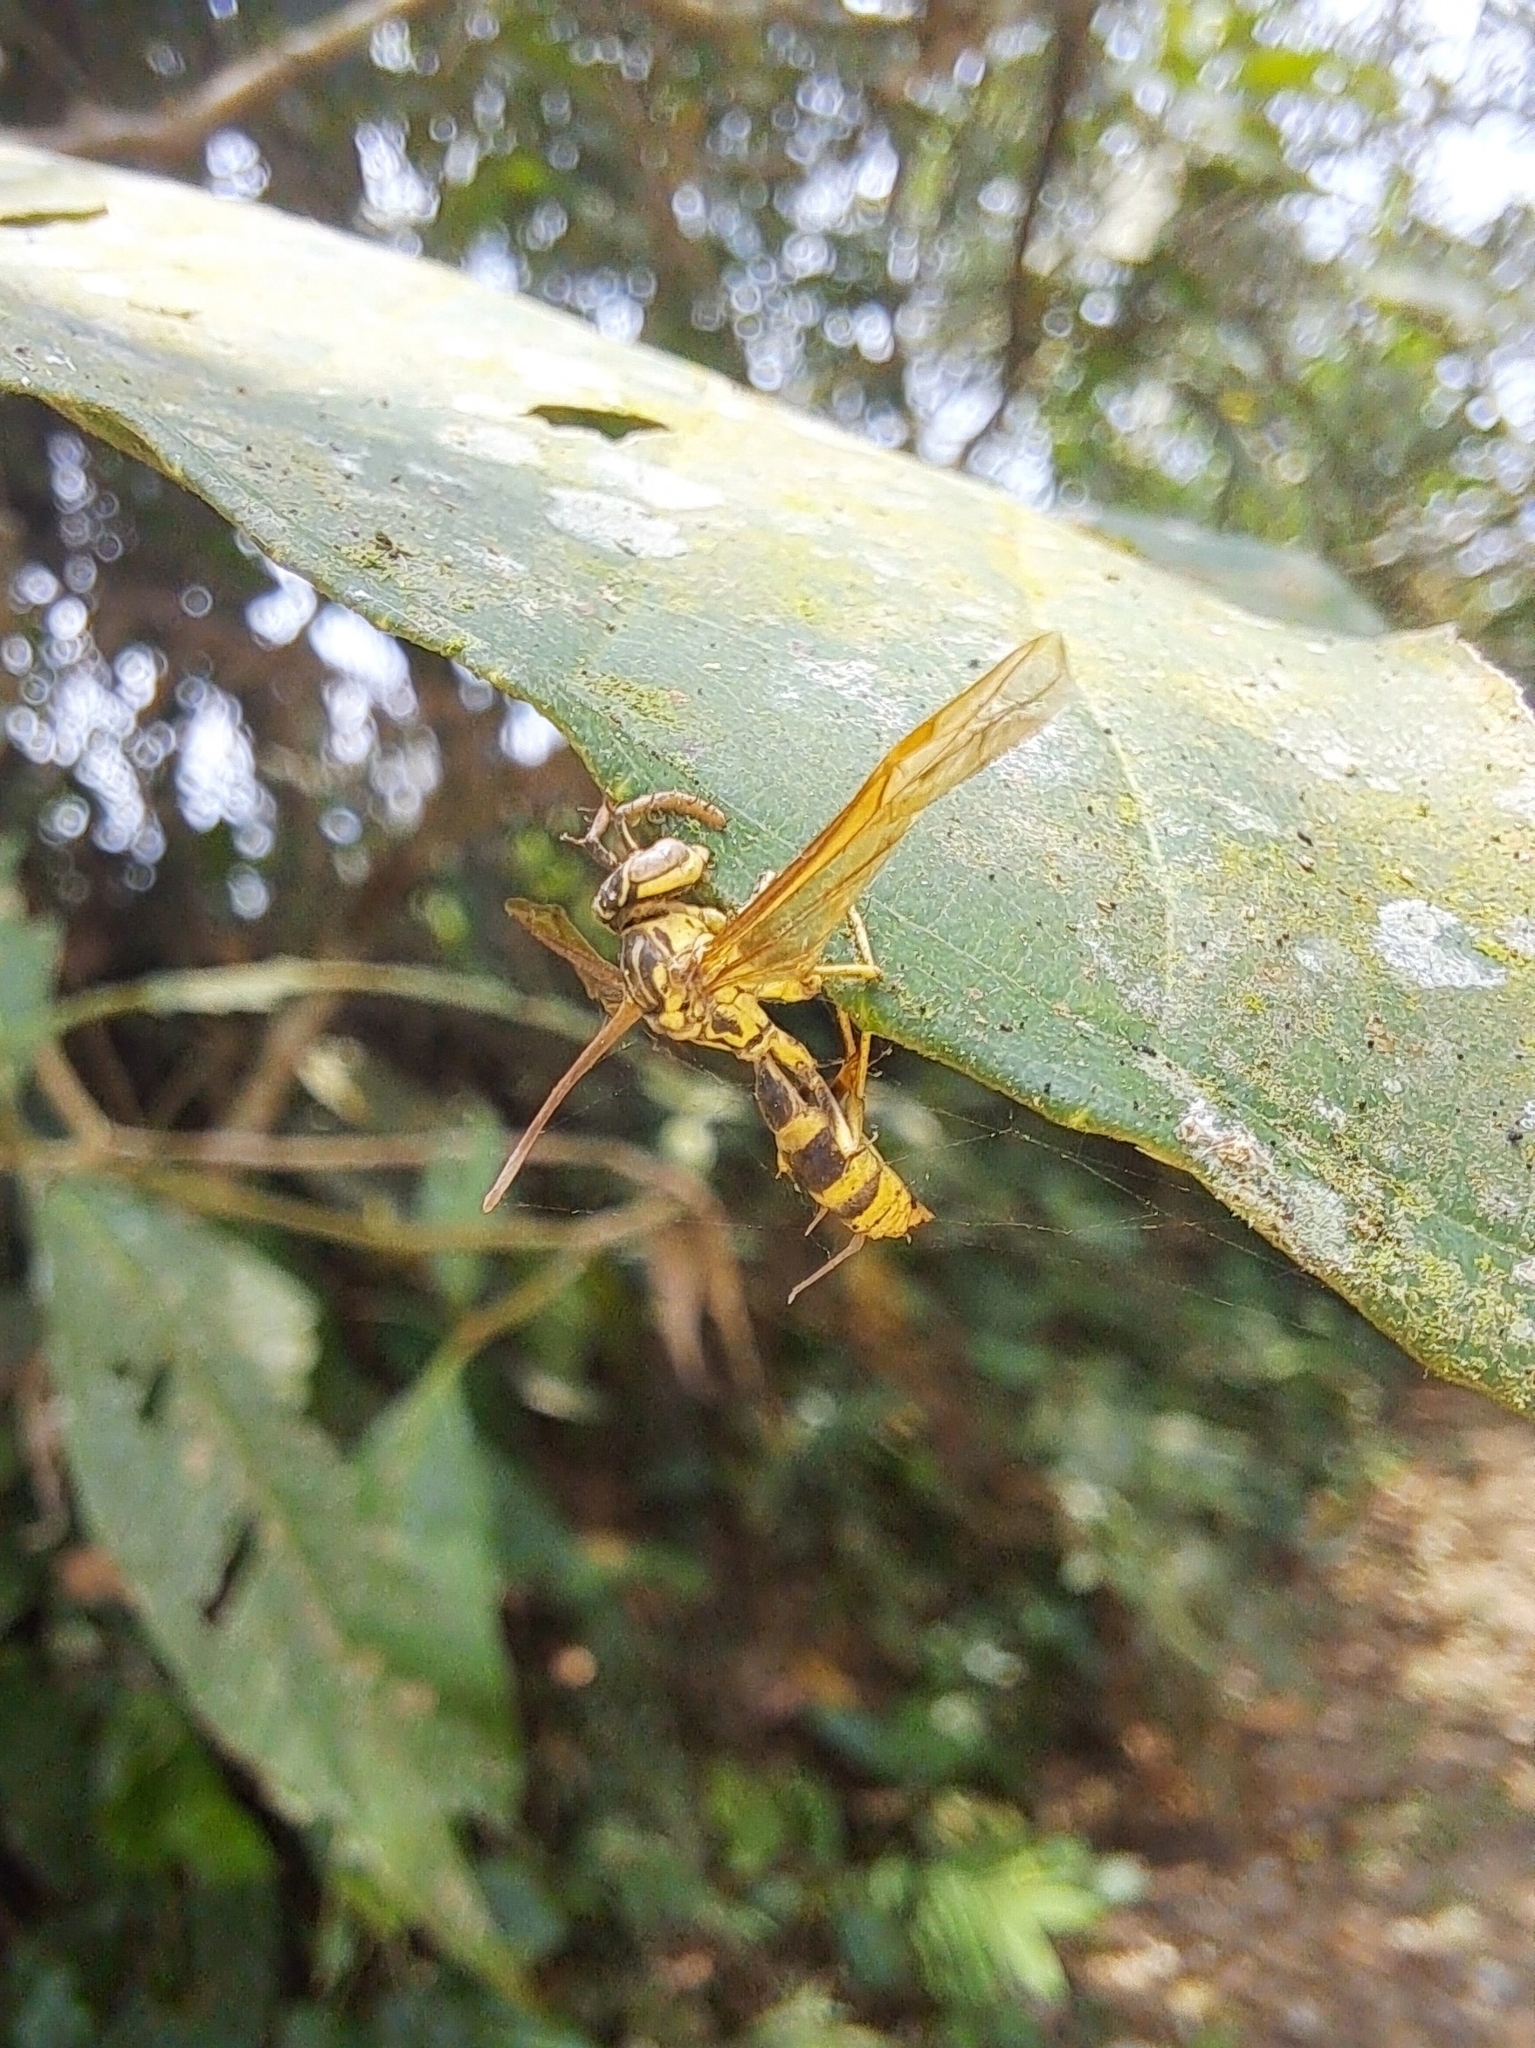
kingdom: Fungi
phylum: Ascomycota
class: Sordariomycetes
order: Hypocreales
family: Ophiocordycipitaceae
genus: Ophiocordyceps
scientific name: Ophiocordyceps humbertii
